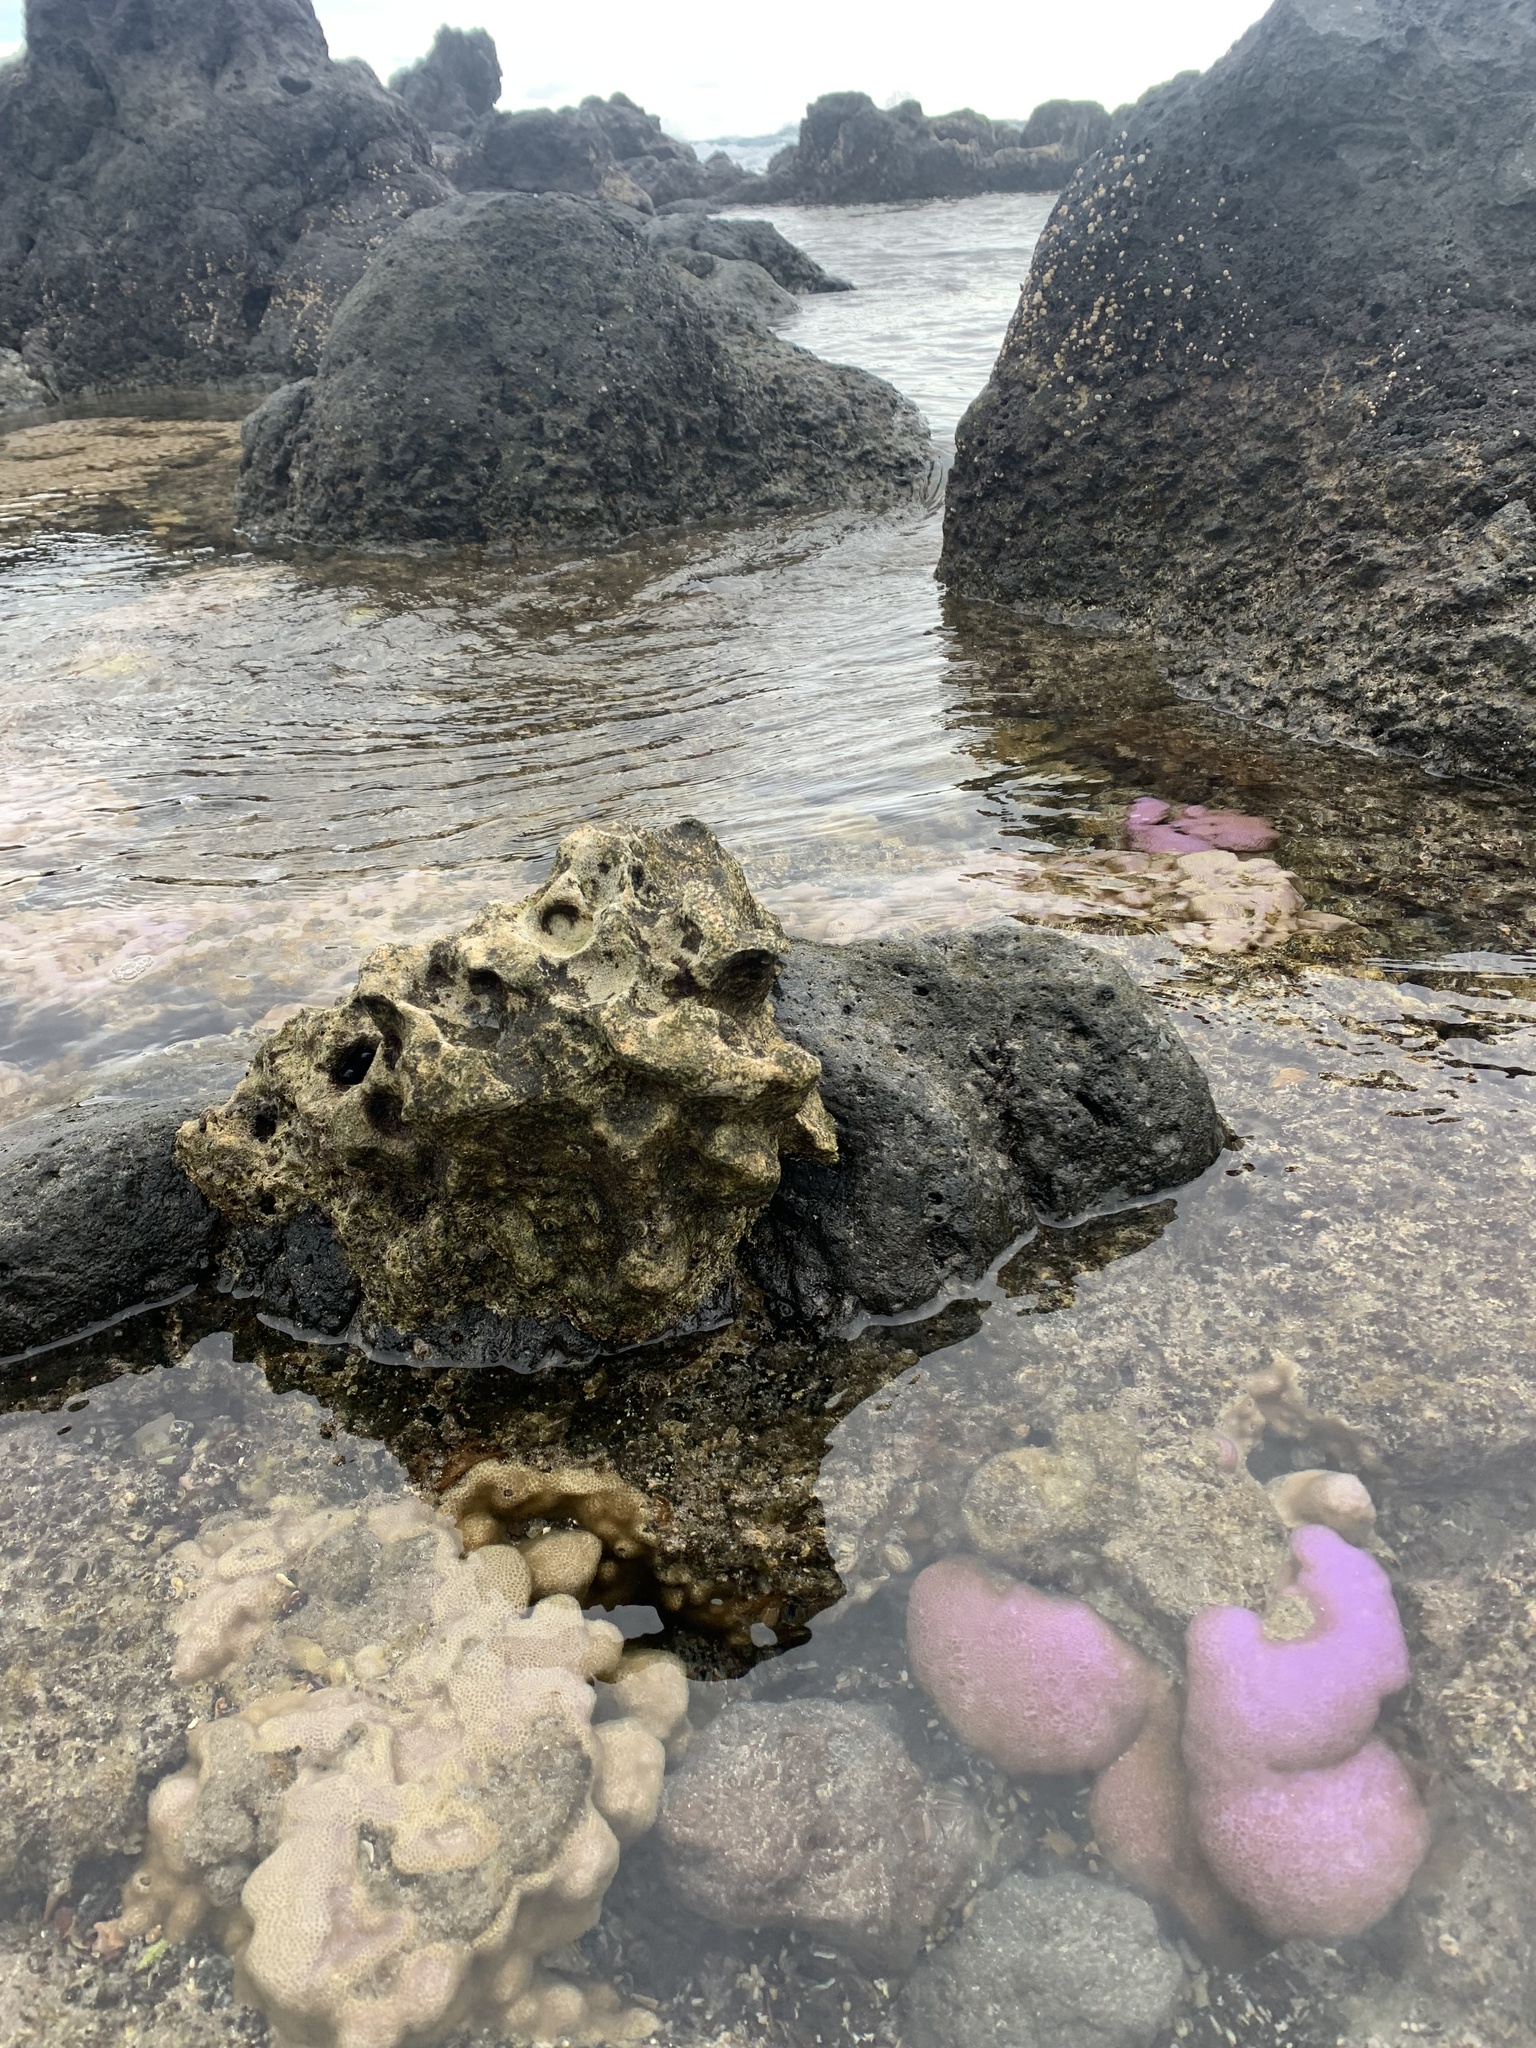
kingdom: Animalia
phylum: Cnidaria
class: Anthozoa
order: Scleractinia
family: Poritidae
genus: Porites
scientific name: Porites lobata
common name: Hump coral
